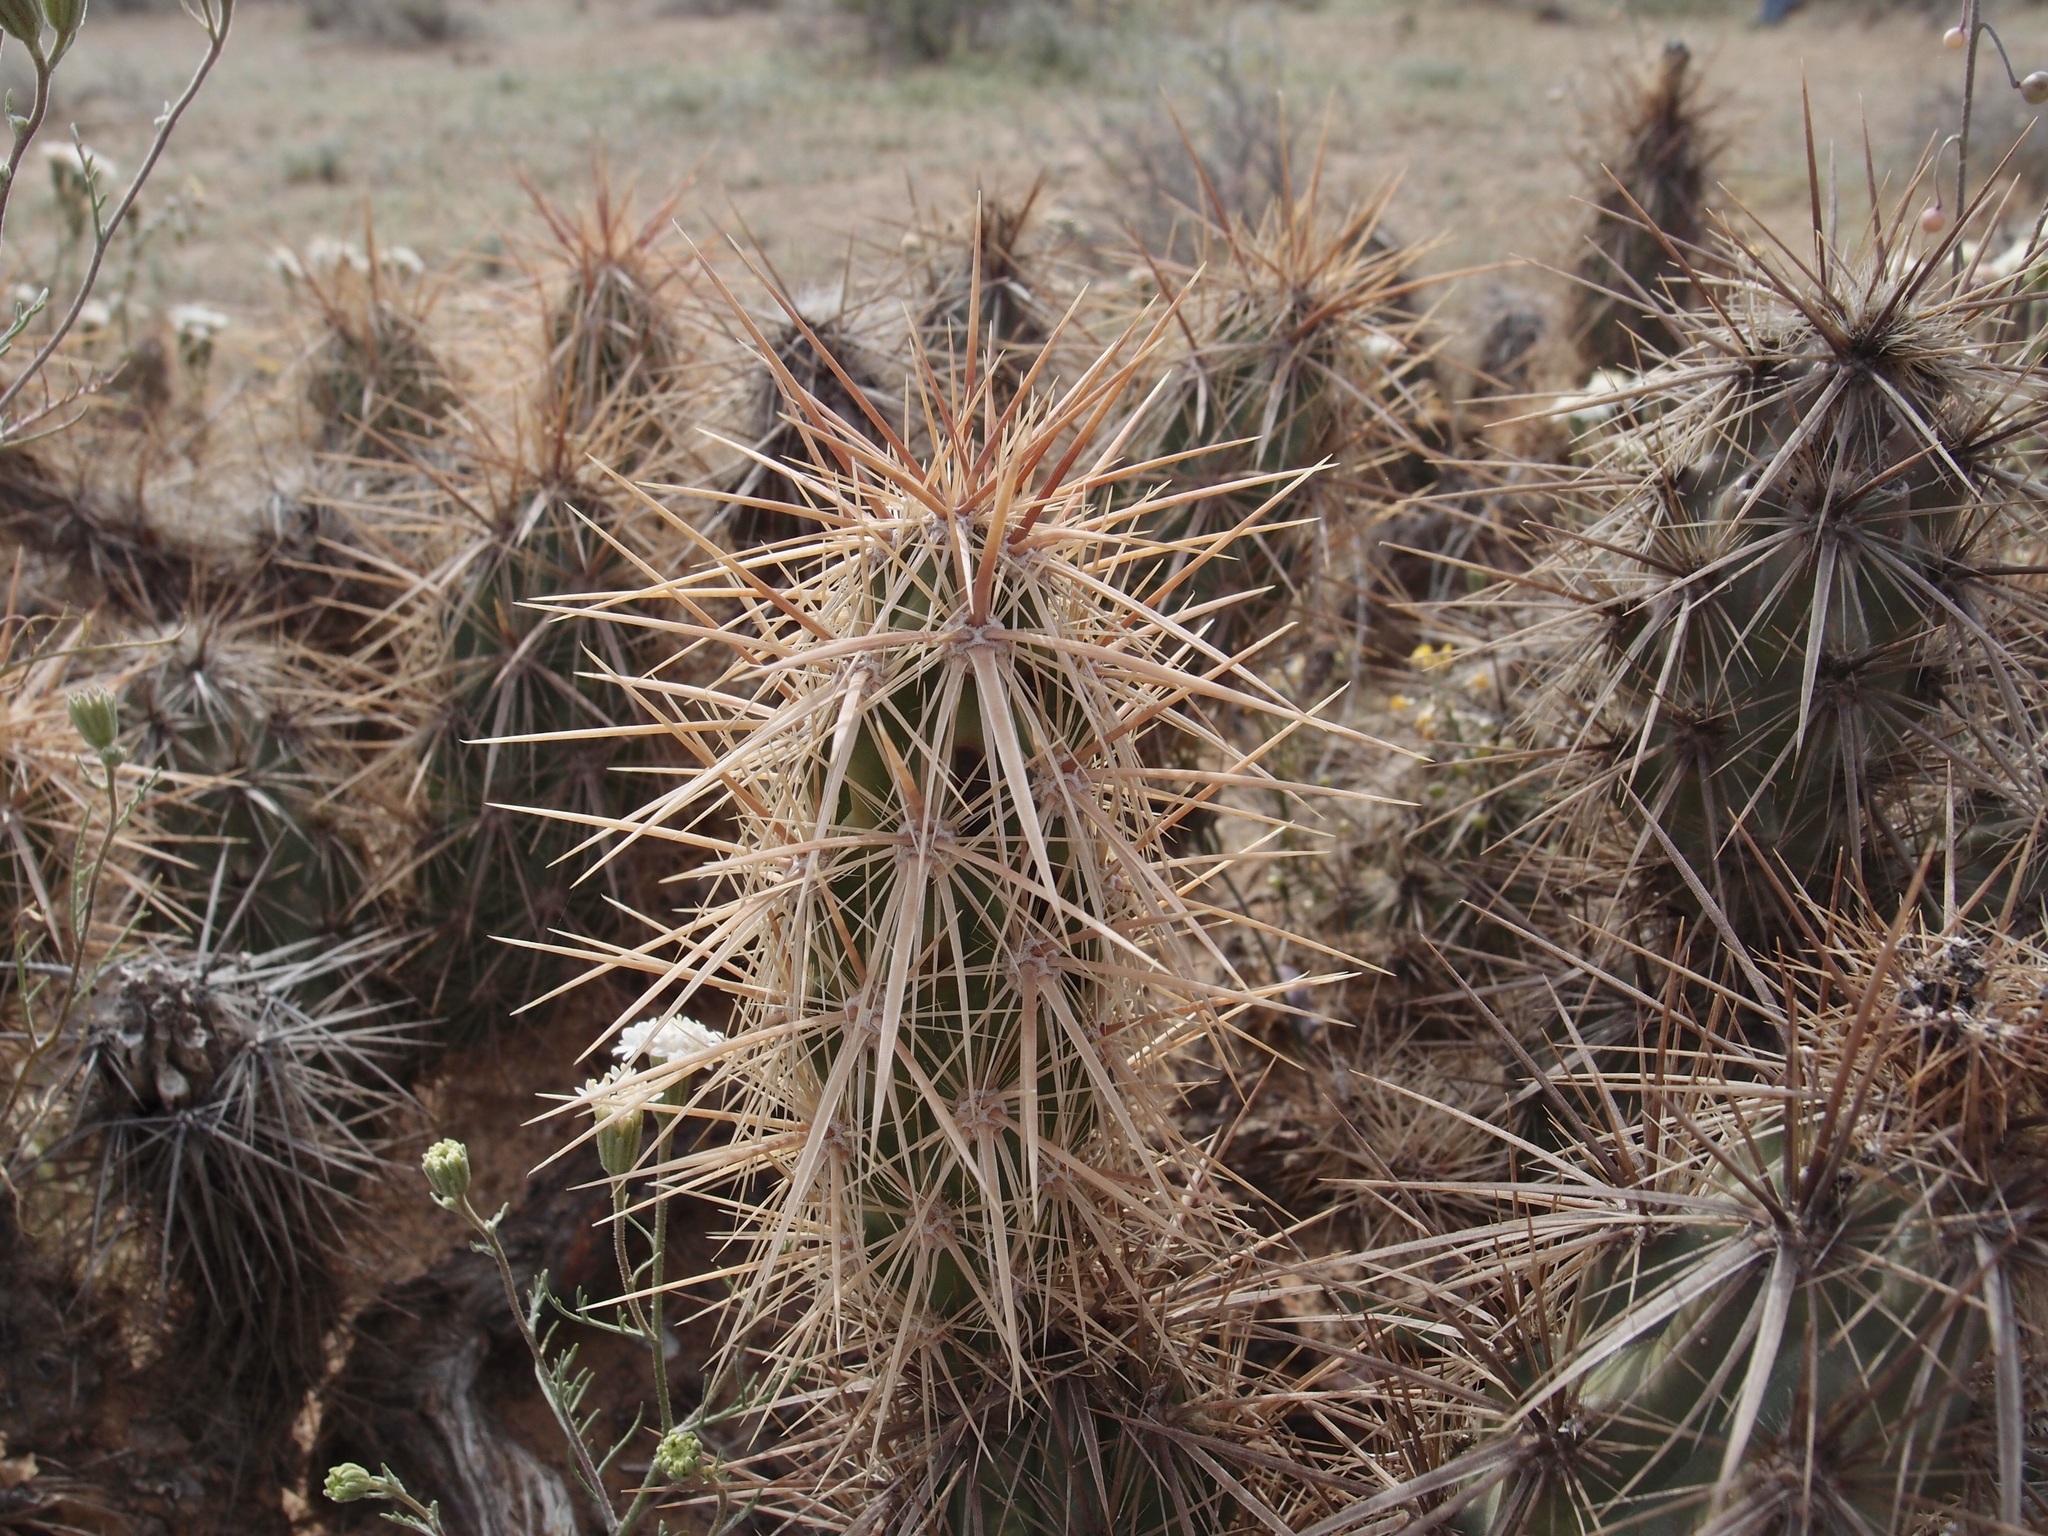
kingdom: Plantae
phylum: Tracheophyta
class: Magnoliopsida
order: Caryophyllales
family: Cactaceae
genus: Grusonia
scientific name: Grusonia kunzei
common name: Wright's club cholla
